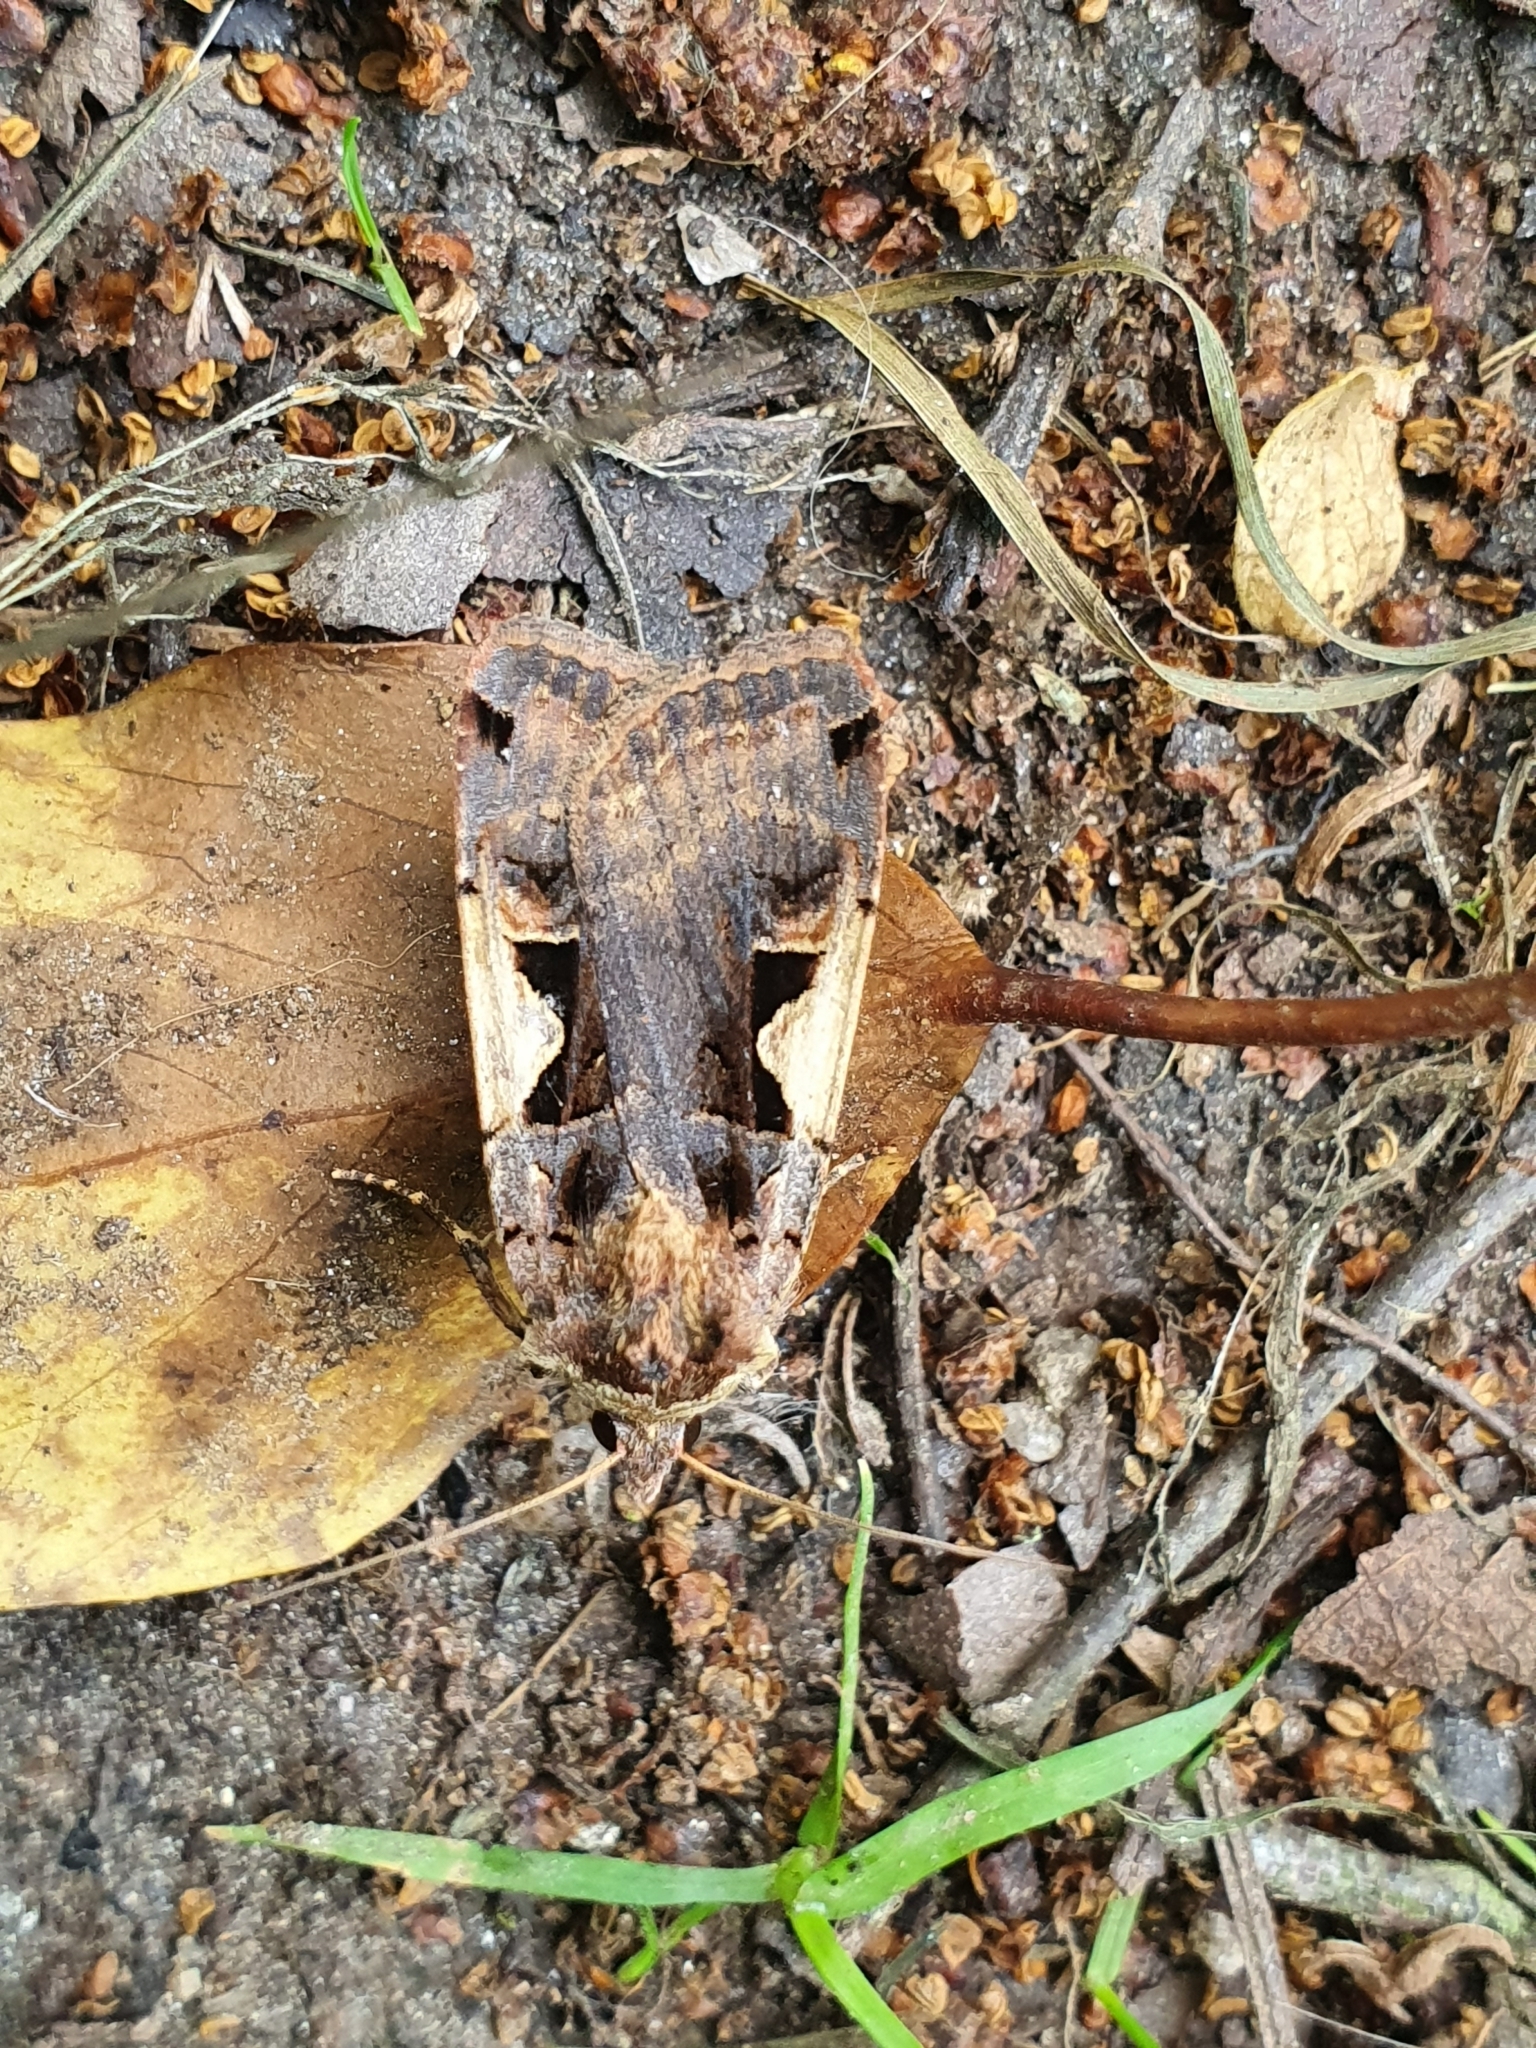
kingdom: Animalia
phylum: Arthropoda
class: Insecta
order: Lepidoptera
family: Noctuidae
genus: Xestia
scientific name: Xestia c-nigrum
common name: Setaceous hebrew character
